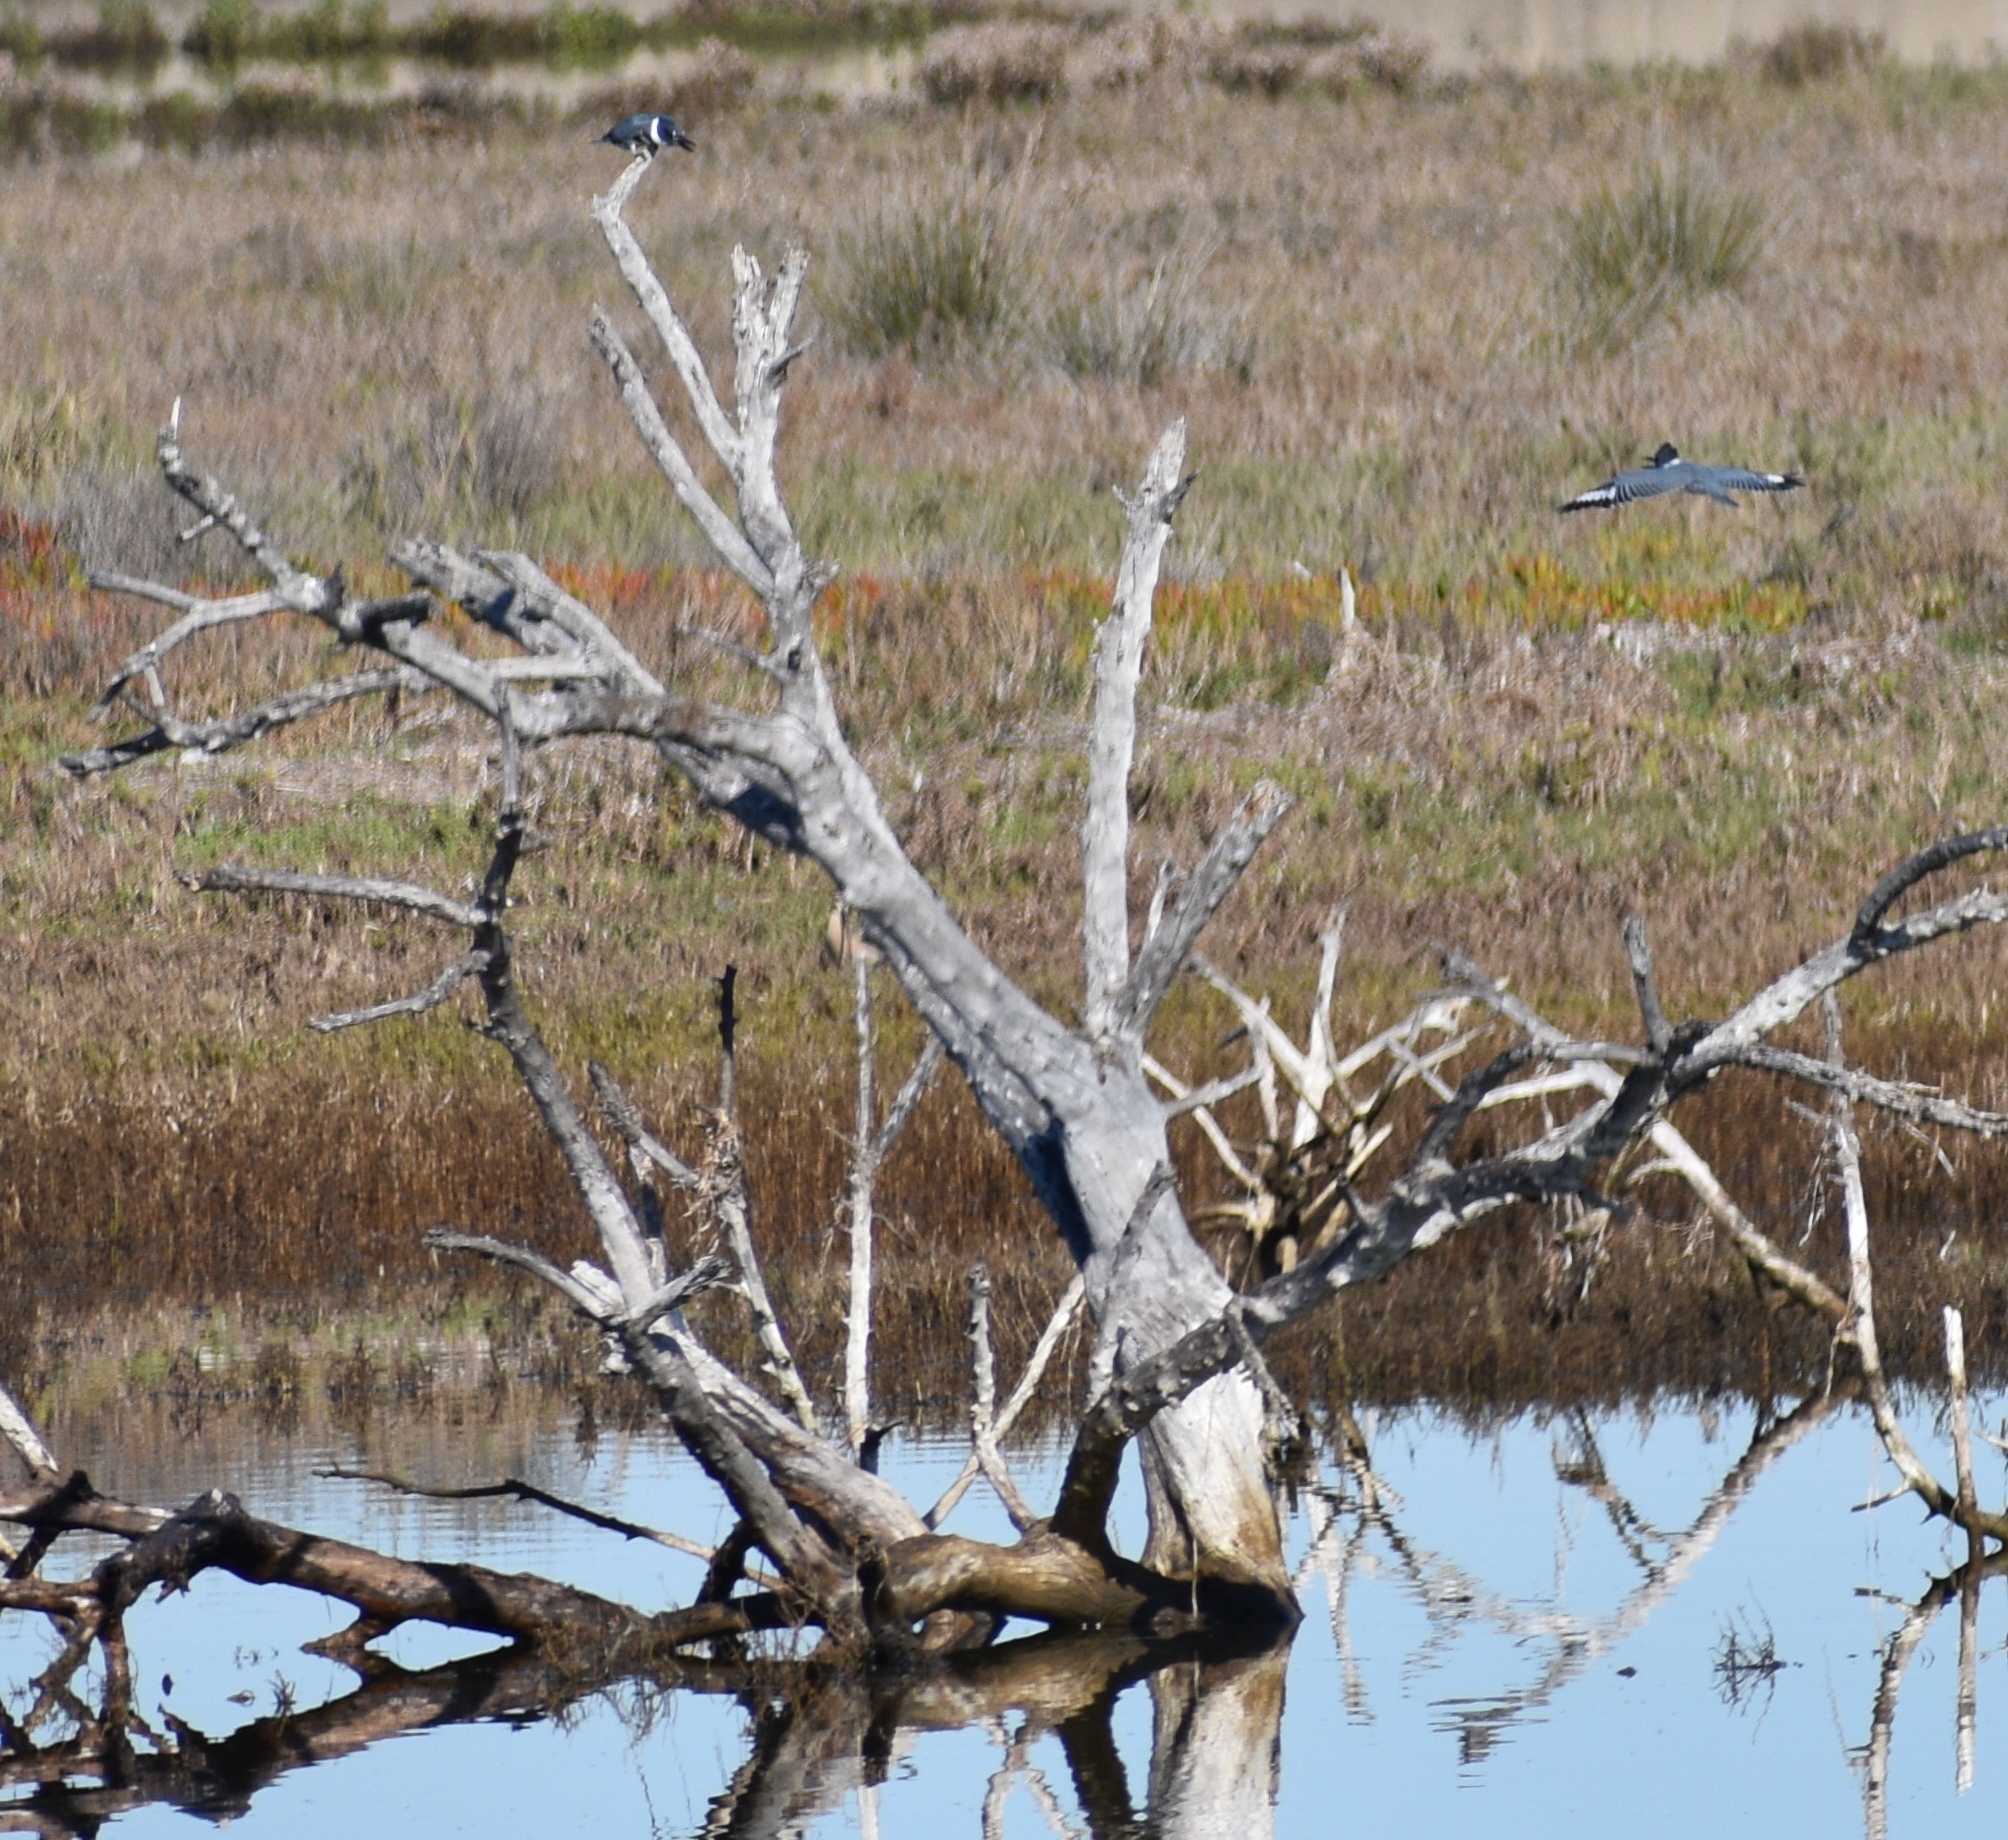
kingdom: Animalia
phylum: Chordata
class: Aves
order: Coraciiformes
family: Alcedinidae
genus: Megaceryle
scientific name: Megaceryle alcyon
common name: Belted kingfisher
